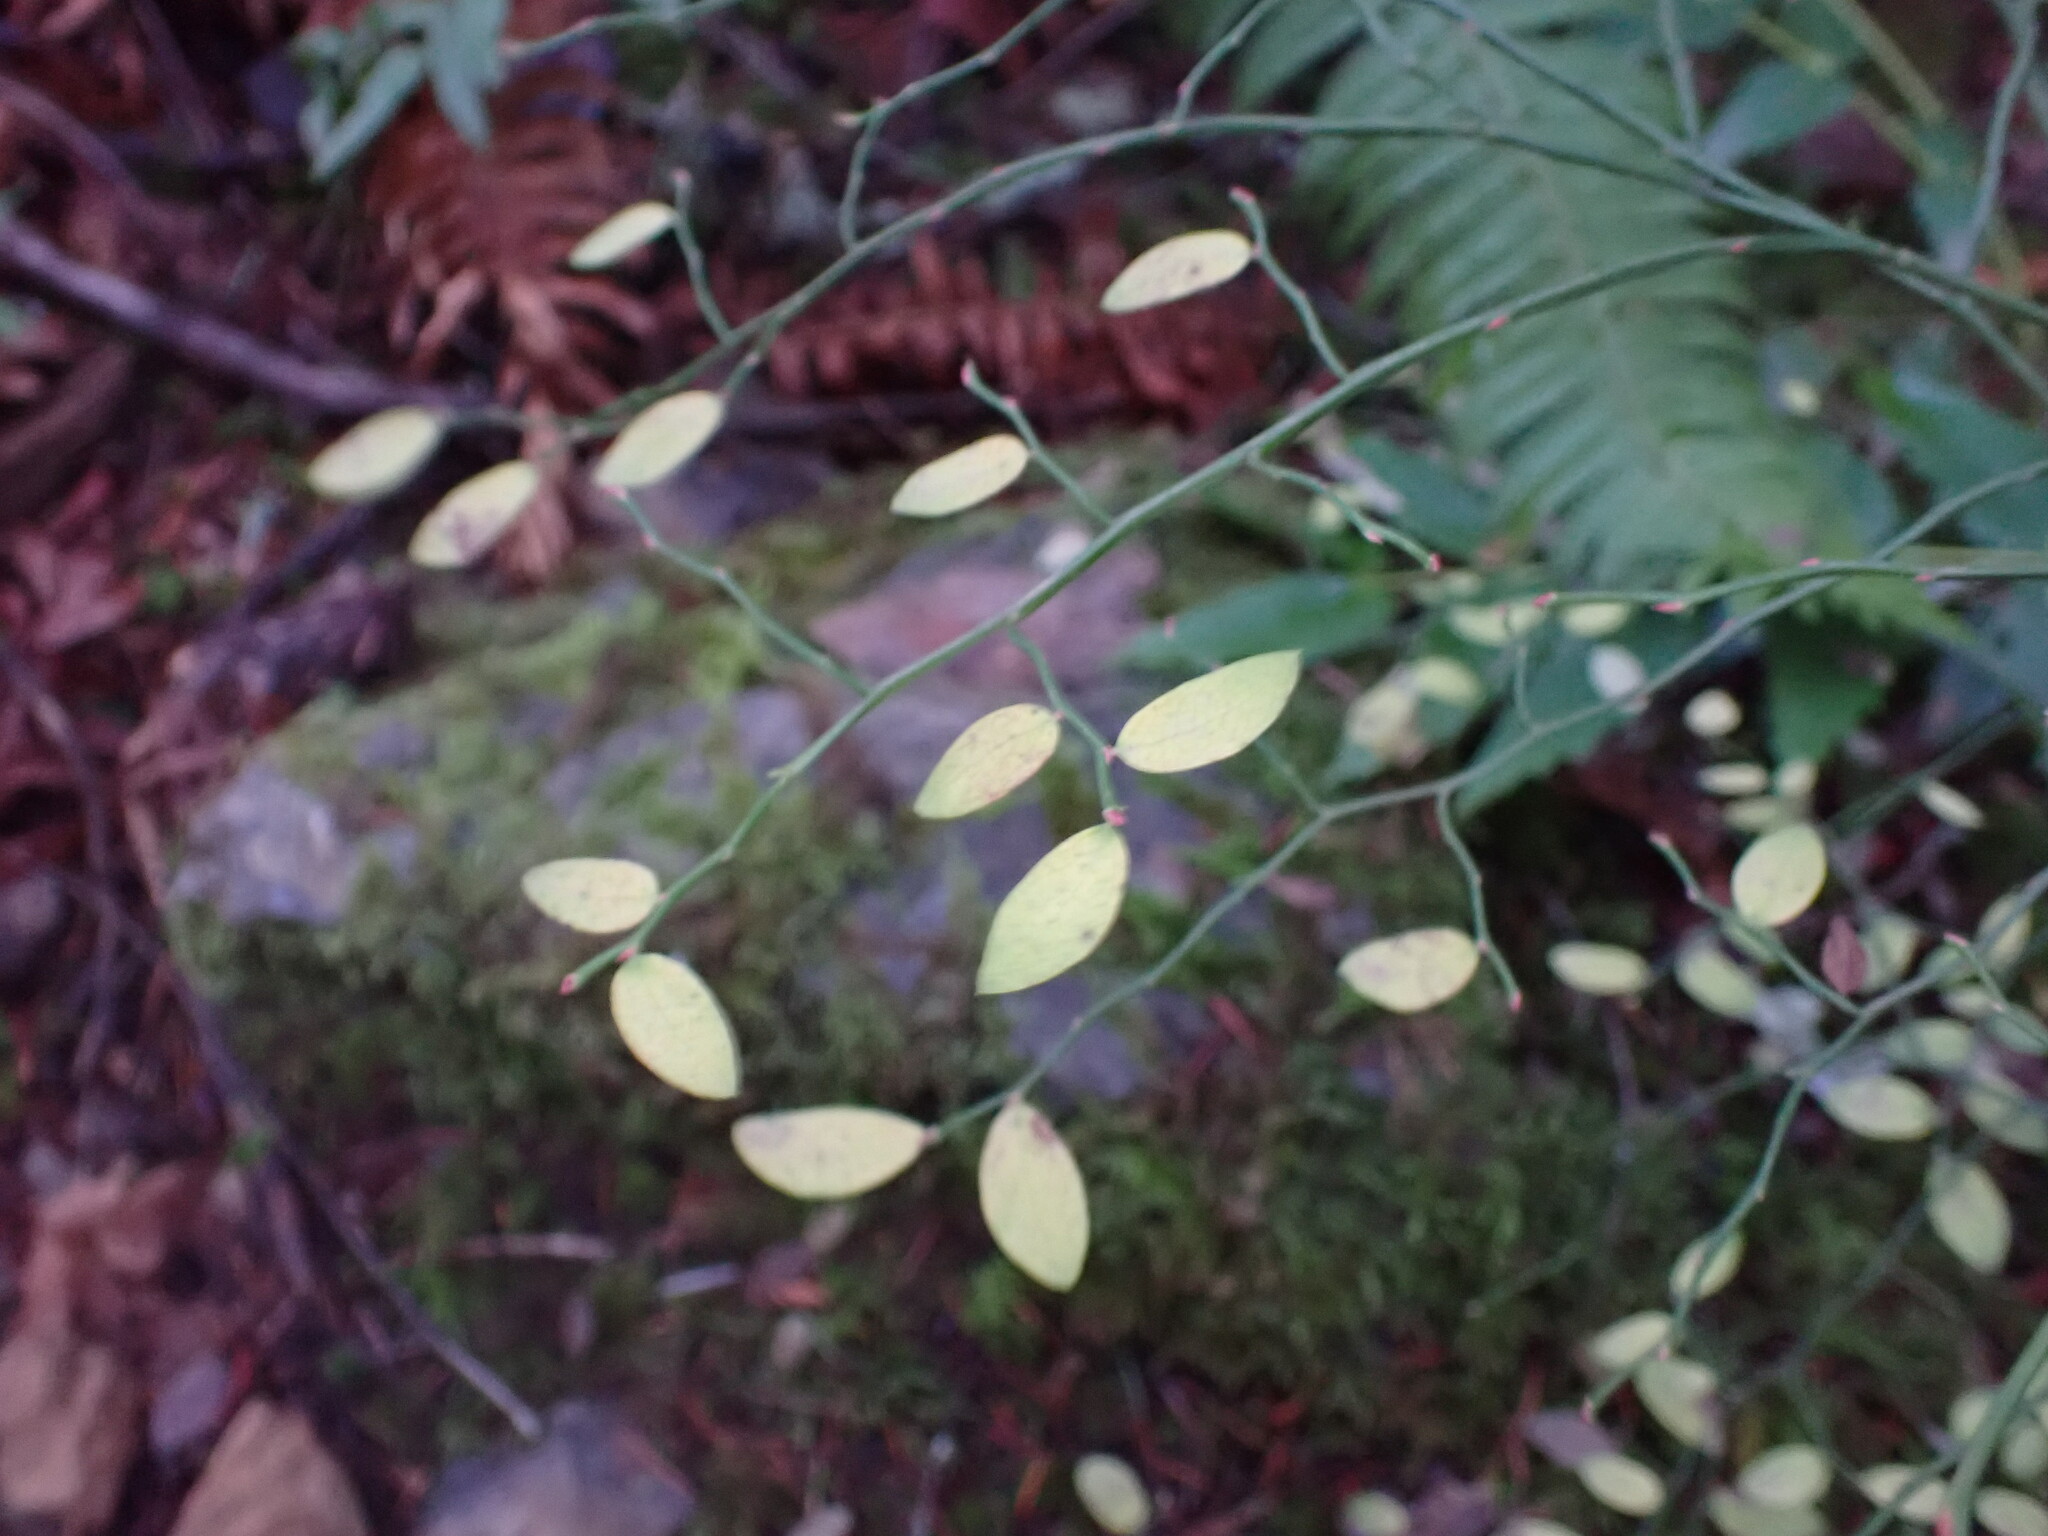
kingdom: Plantae
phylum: Tracheophyta
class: Magnoliopsida
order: Ericales
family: Ericaceae
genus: Vaccinium
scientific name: Vaccinium parvifolium
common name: Red-huckleberry
